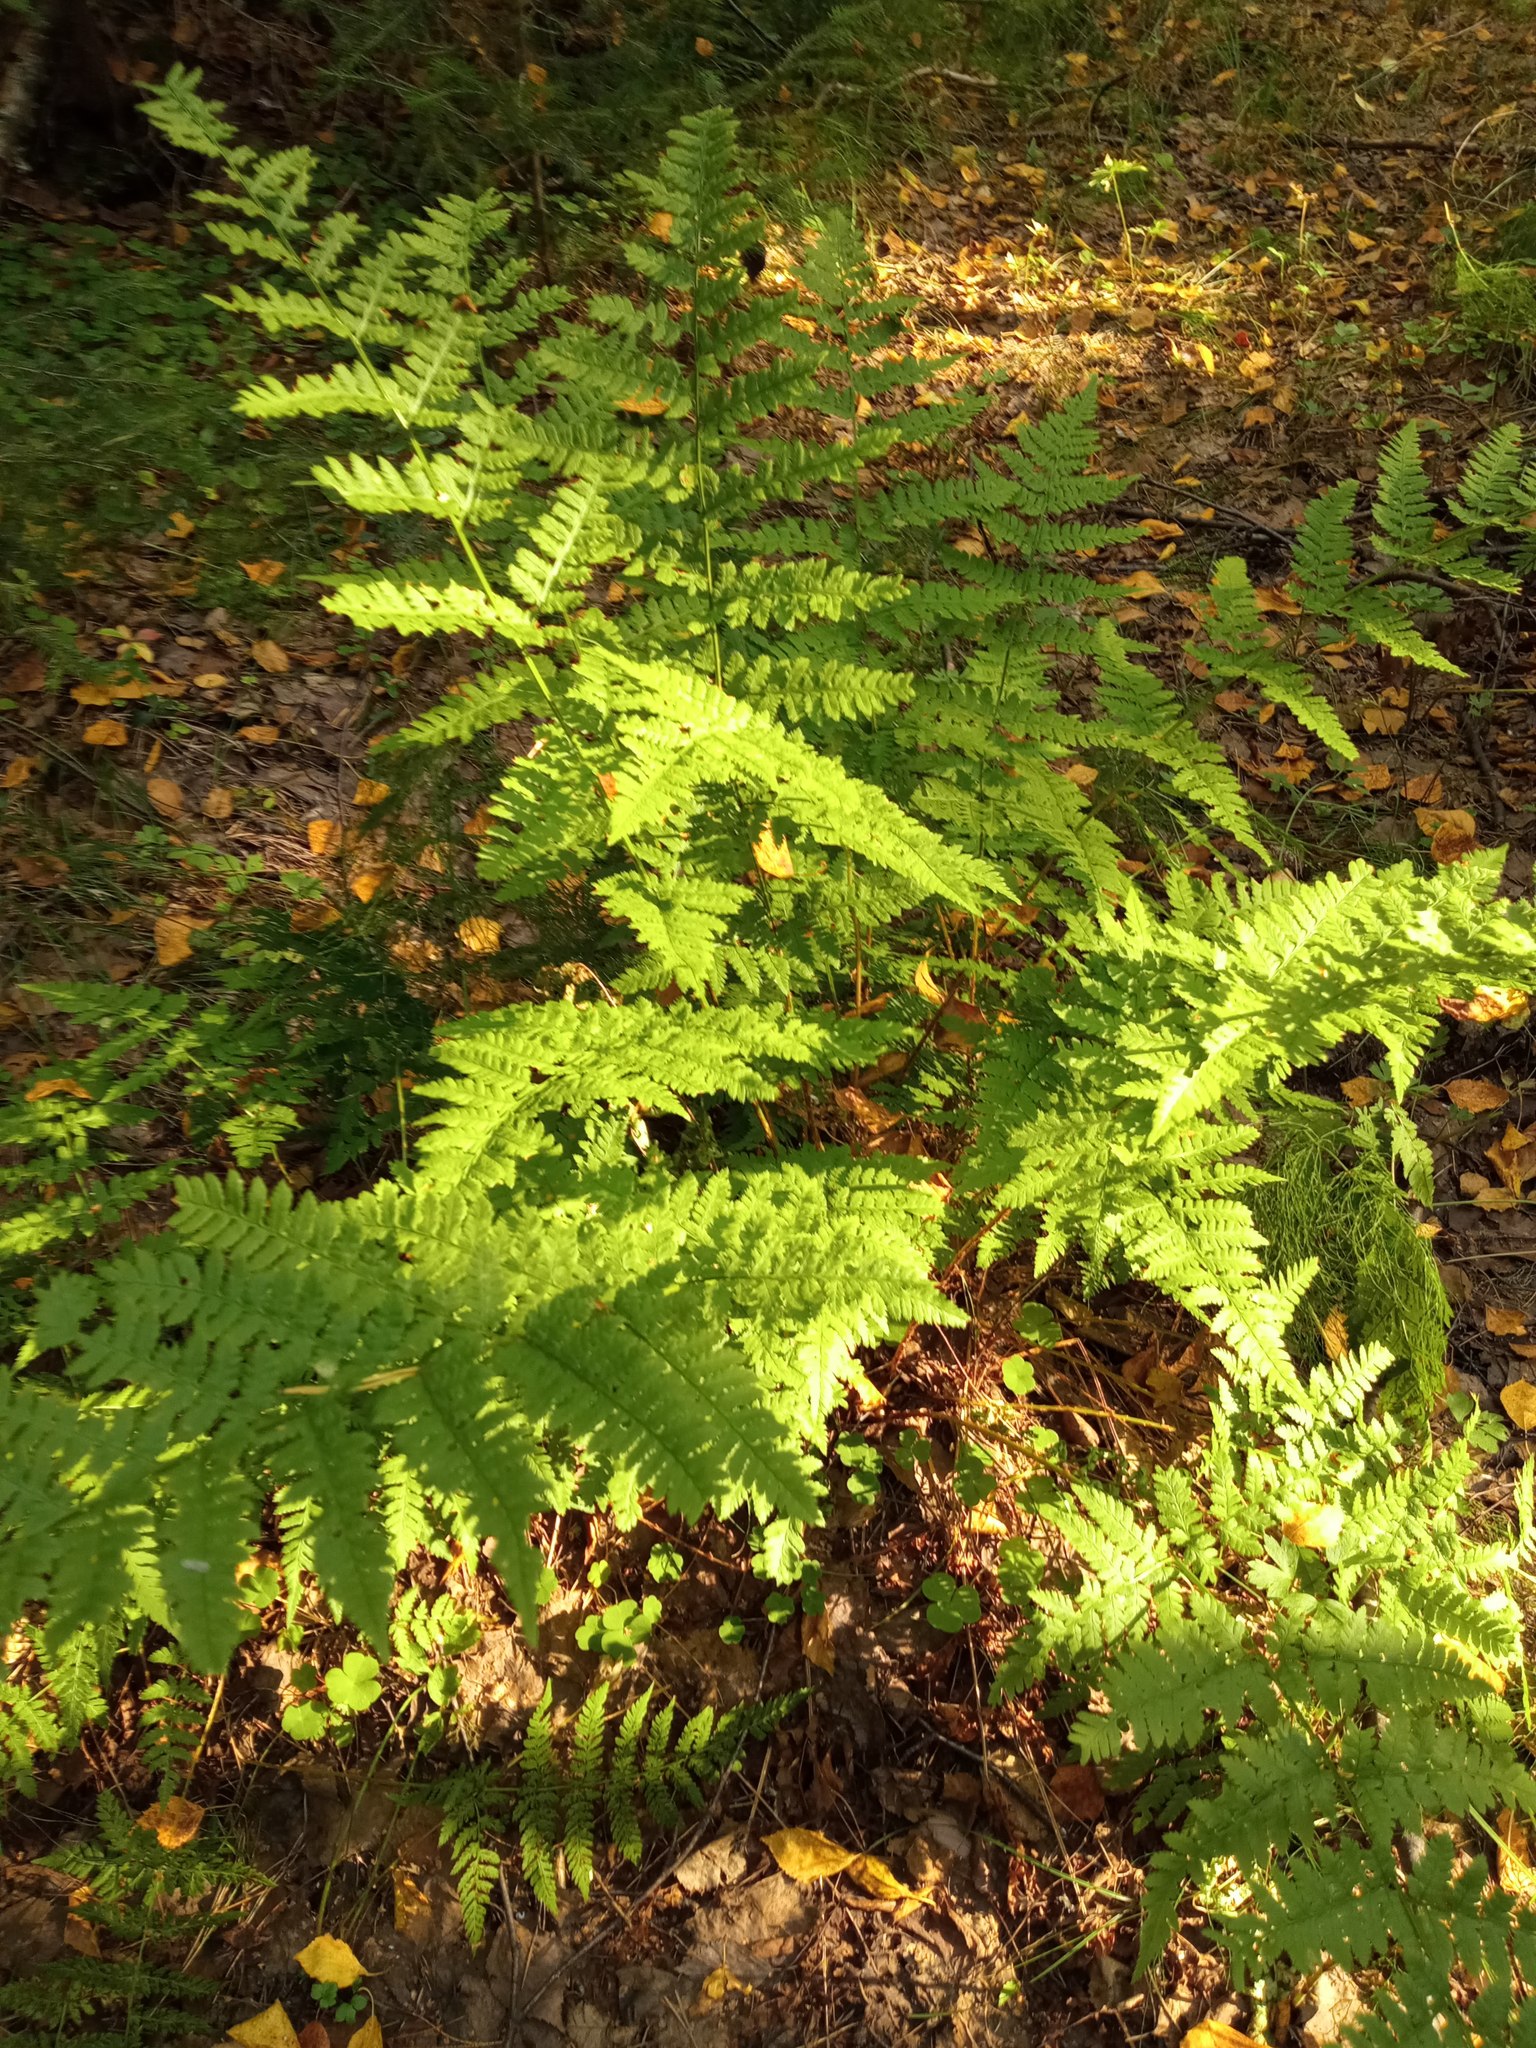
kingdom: Plantae
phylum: Tracheophyta
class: Polypodiopsida
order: Polypodiales
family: Dryopteridaceae
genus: Dryopteris
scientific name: Dryopteris carthusiana
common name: Narrow buckler-fern
